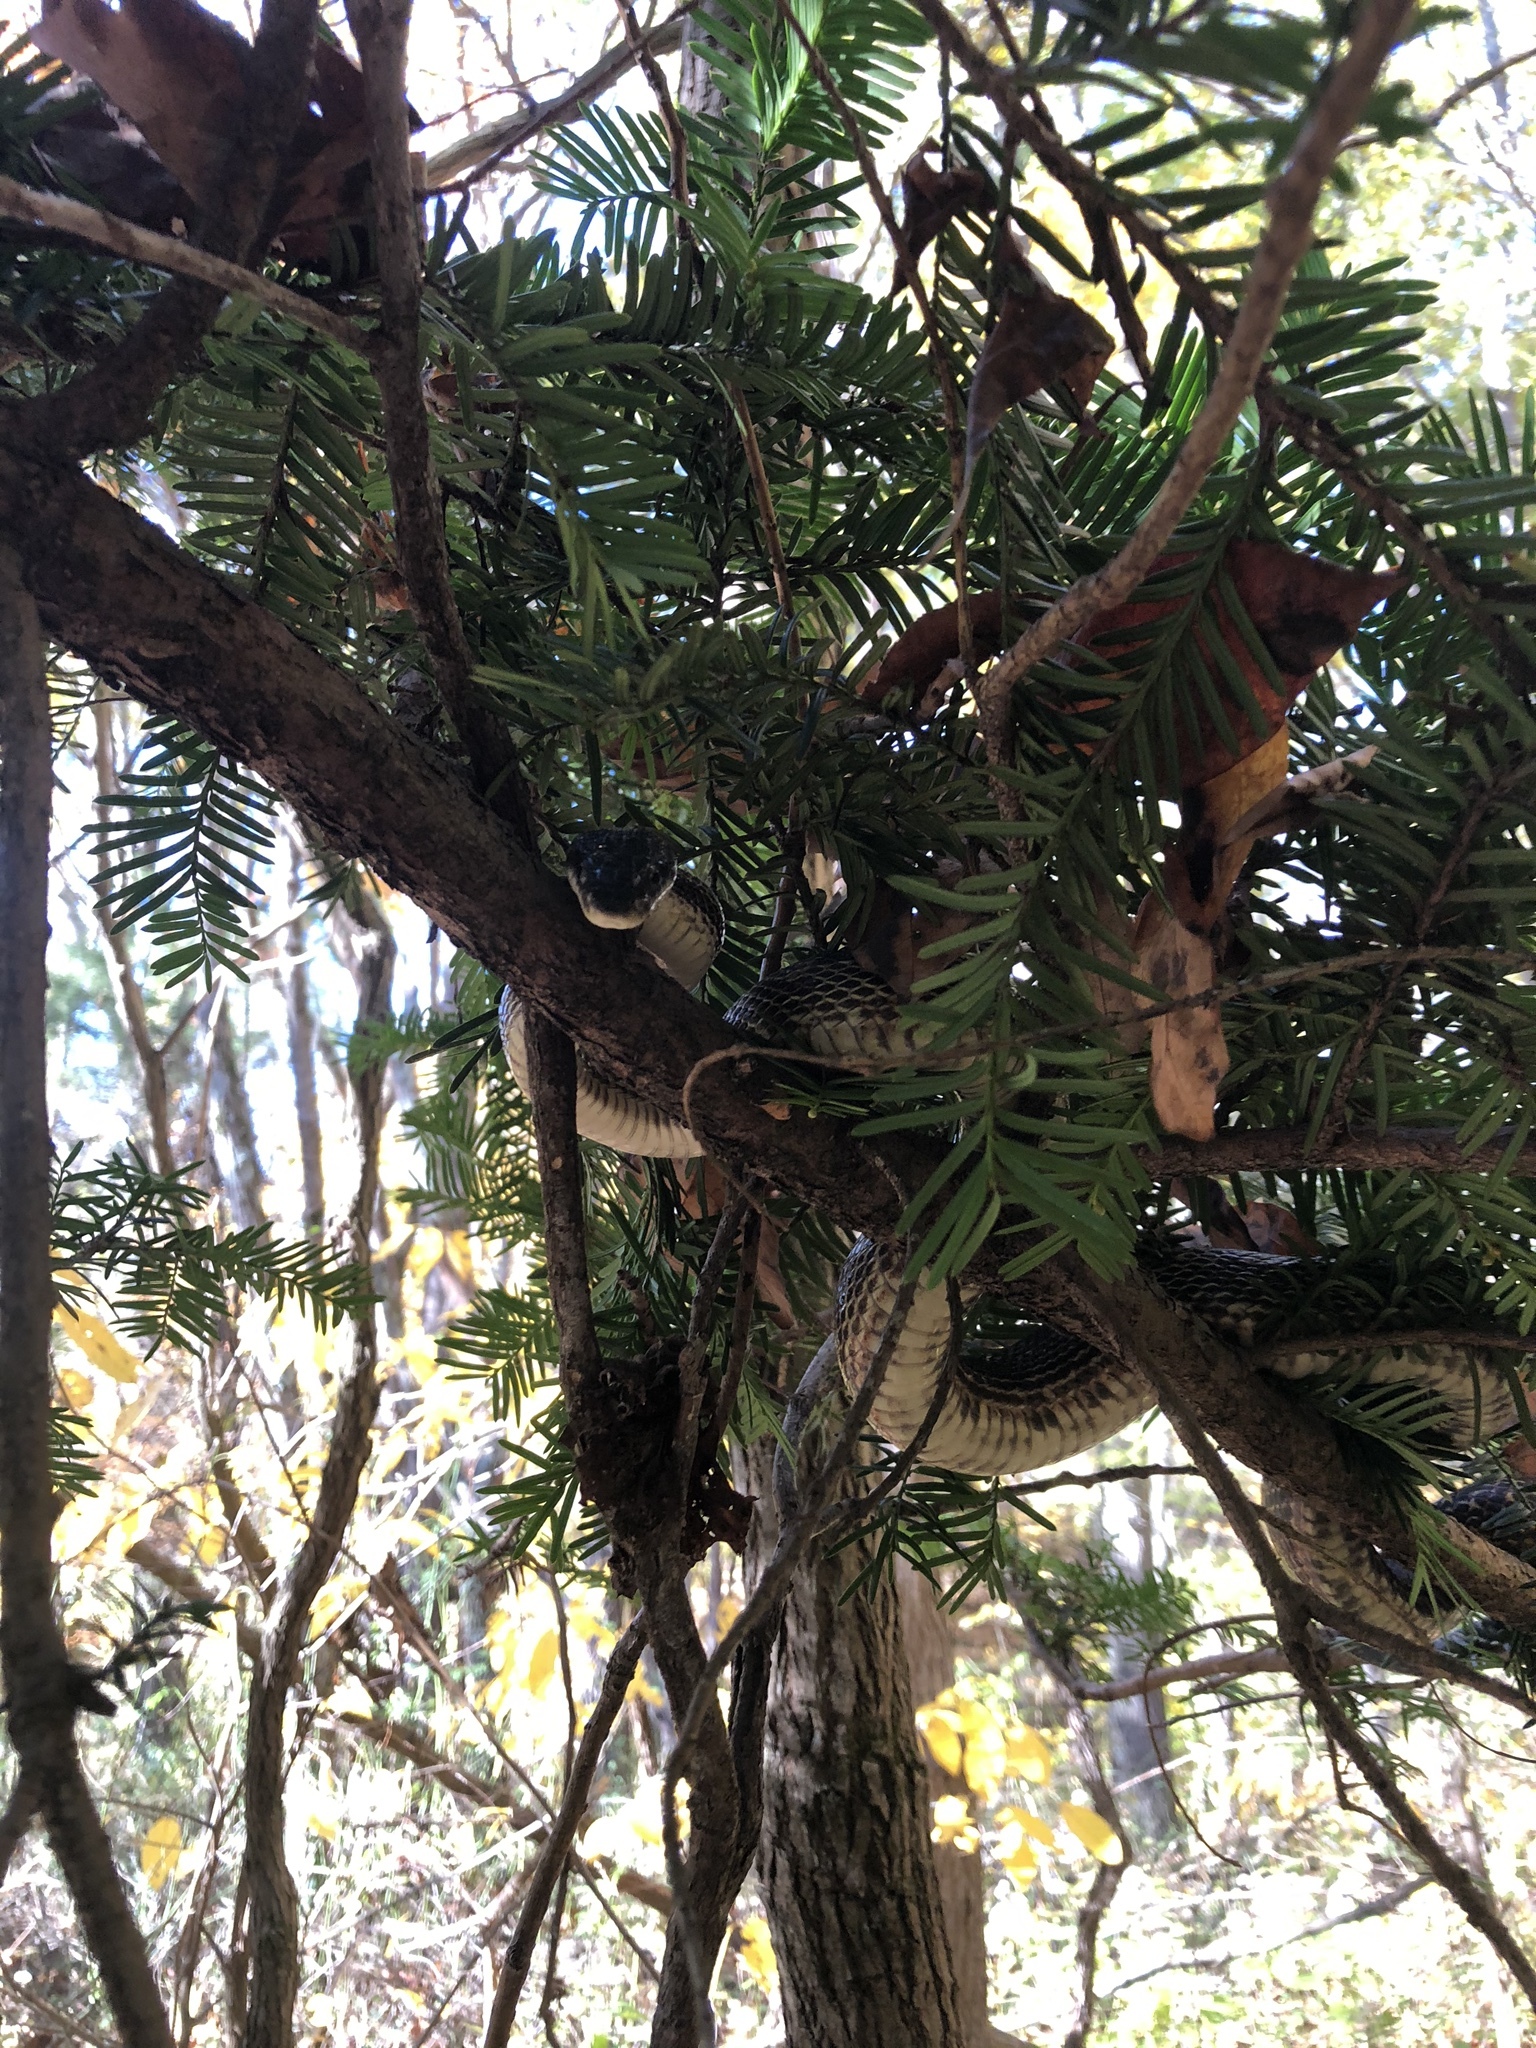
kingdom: Animalia
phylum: Chordata
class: Squamata
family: Colubridae
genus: Pantherophis
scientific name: Pantherophis spiloides
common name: Gray rat snake
